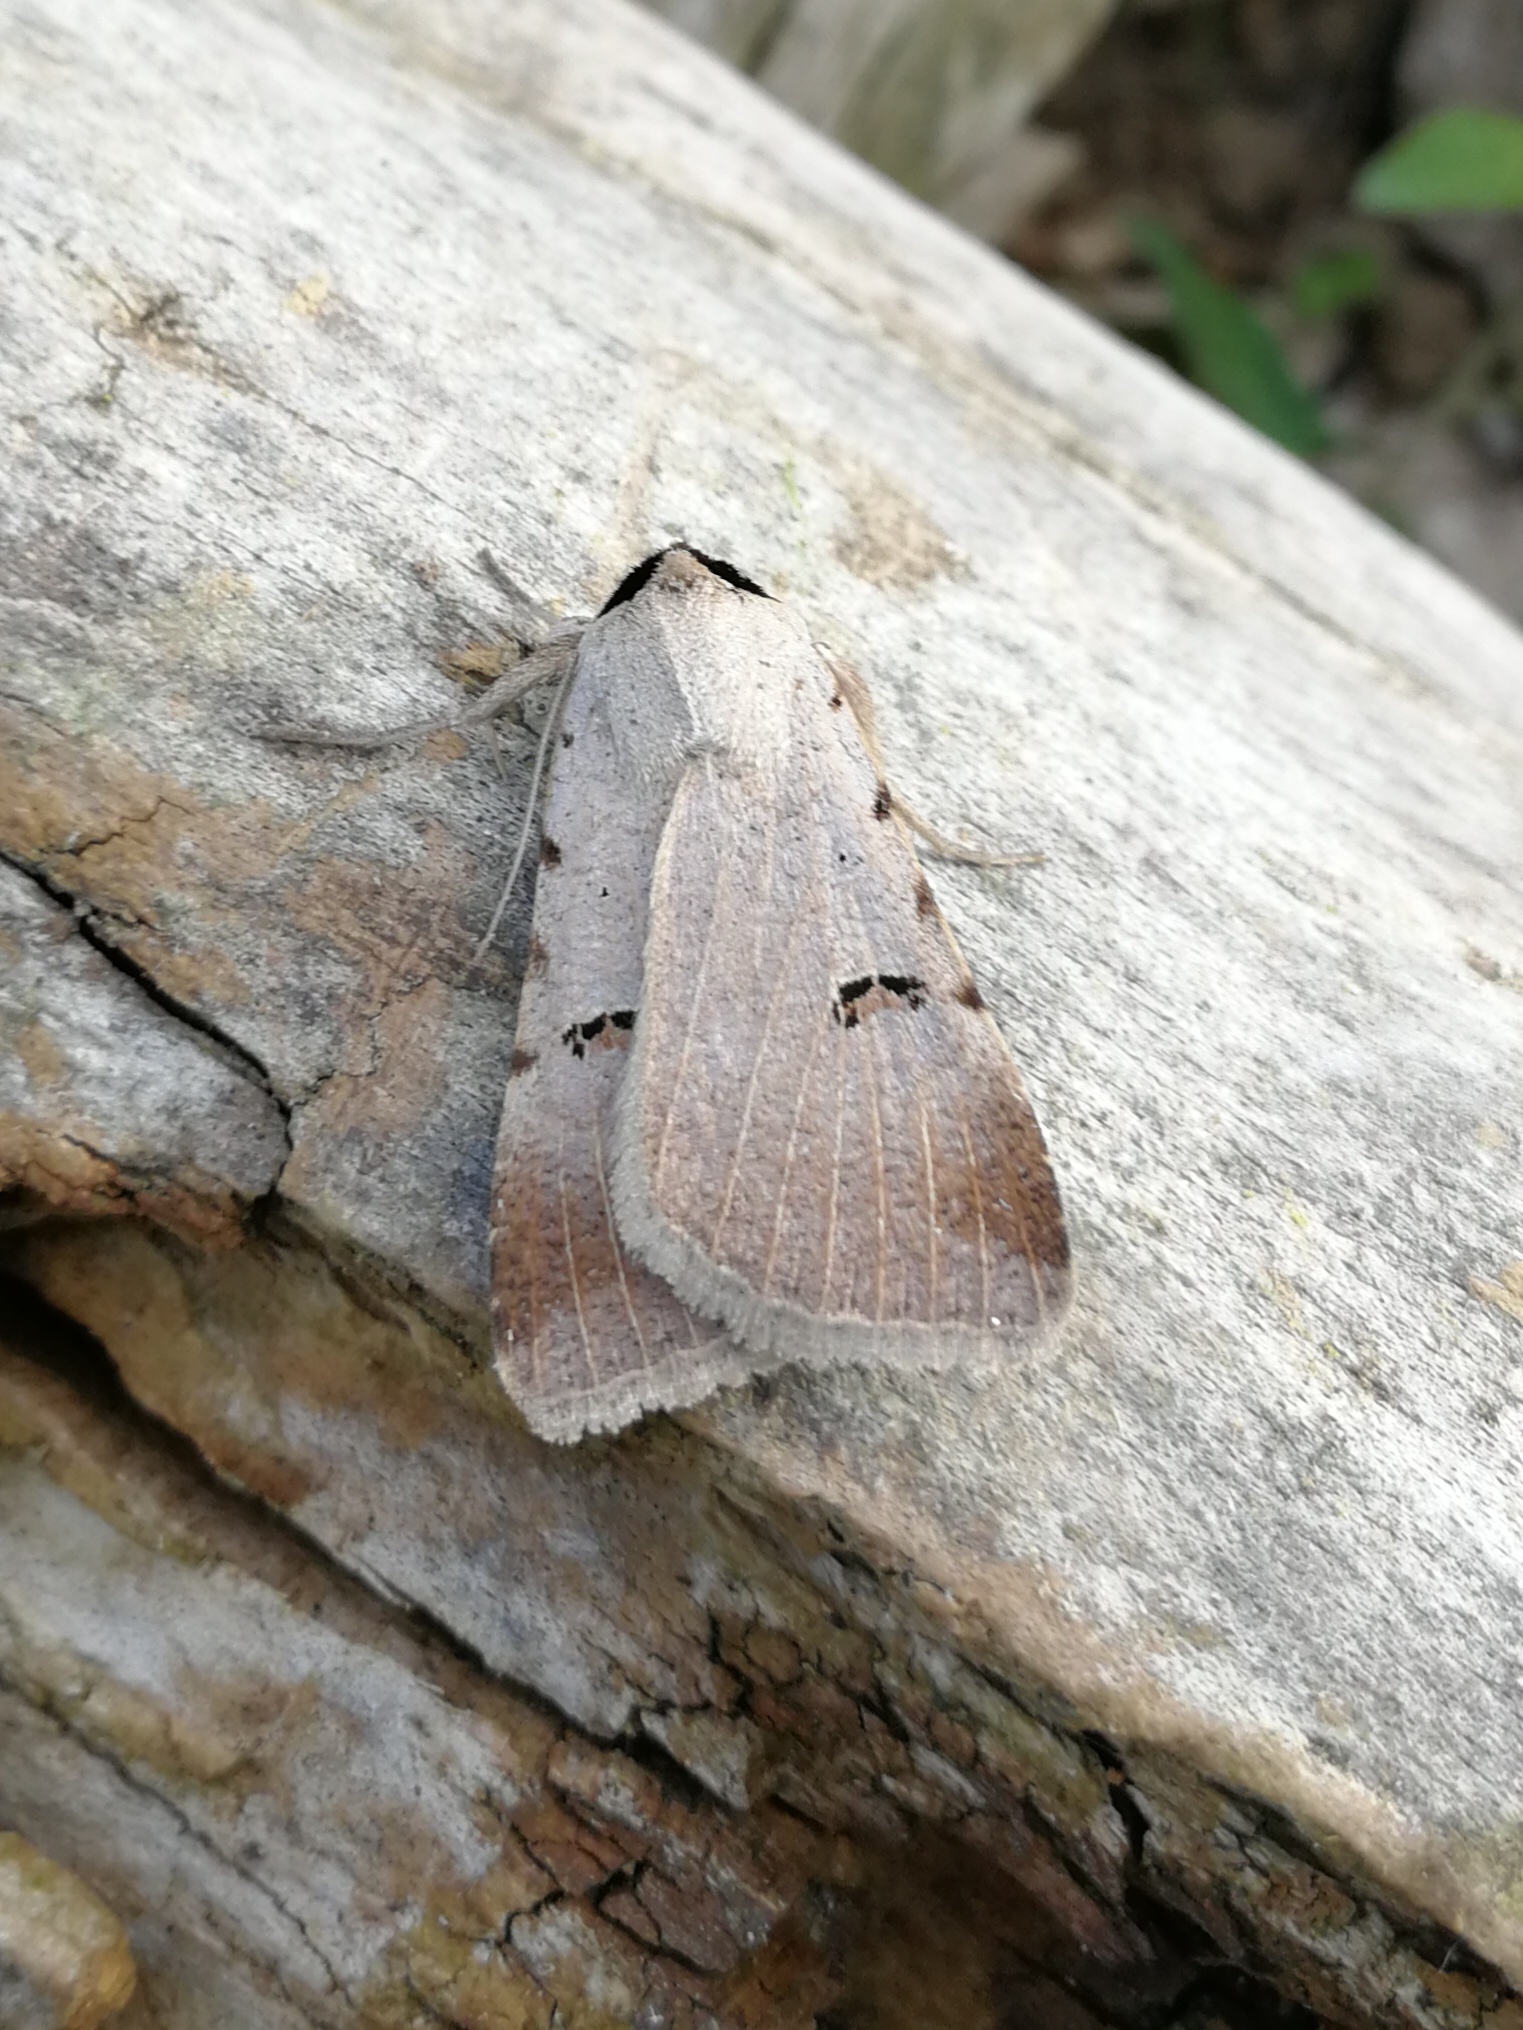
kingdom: Animalia
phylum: Arthropoda
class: Insecta
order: Lepidoptera
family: Erebidae
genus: Lygephila
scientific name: Lygephila craccae
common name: Scarce blackneck
